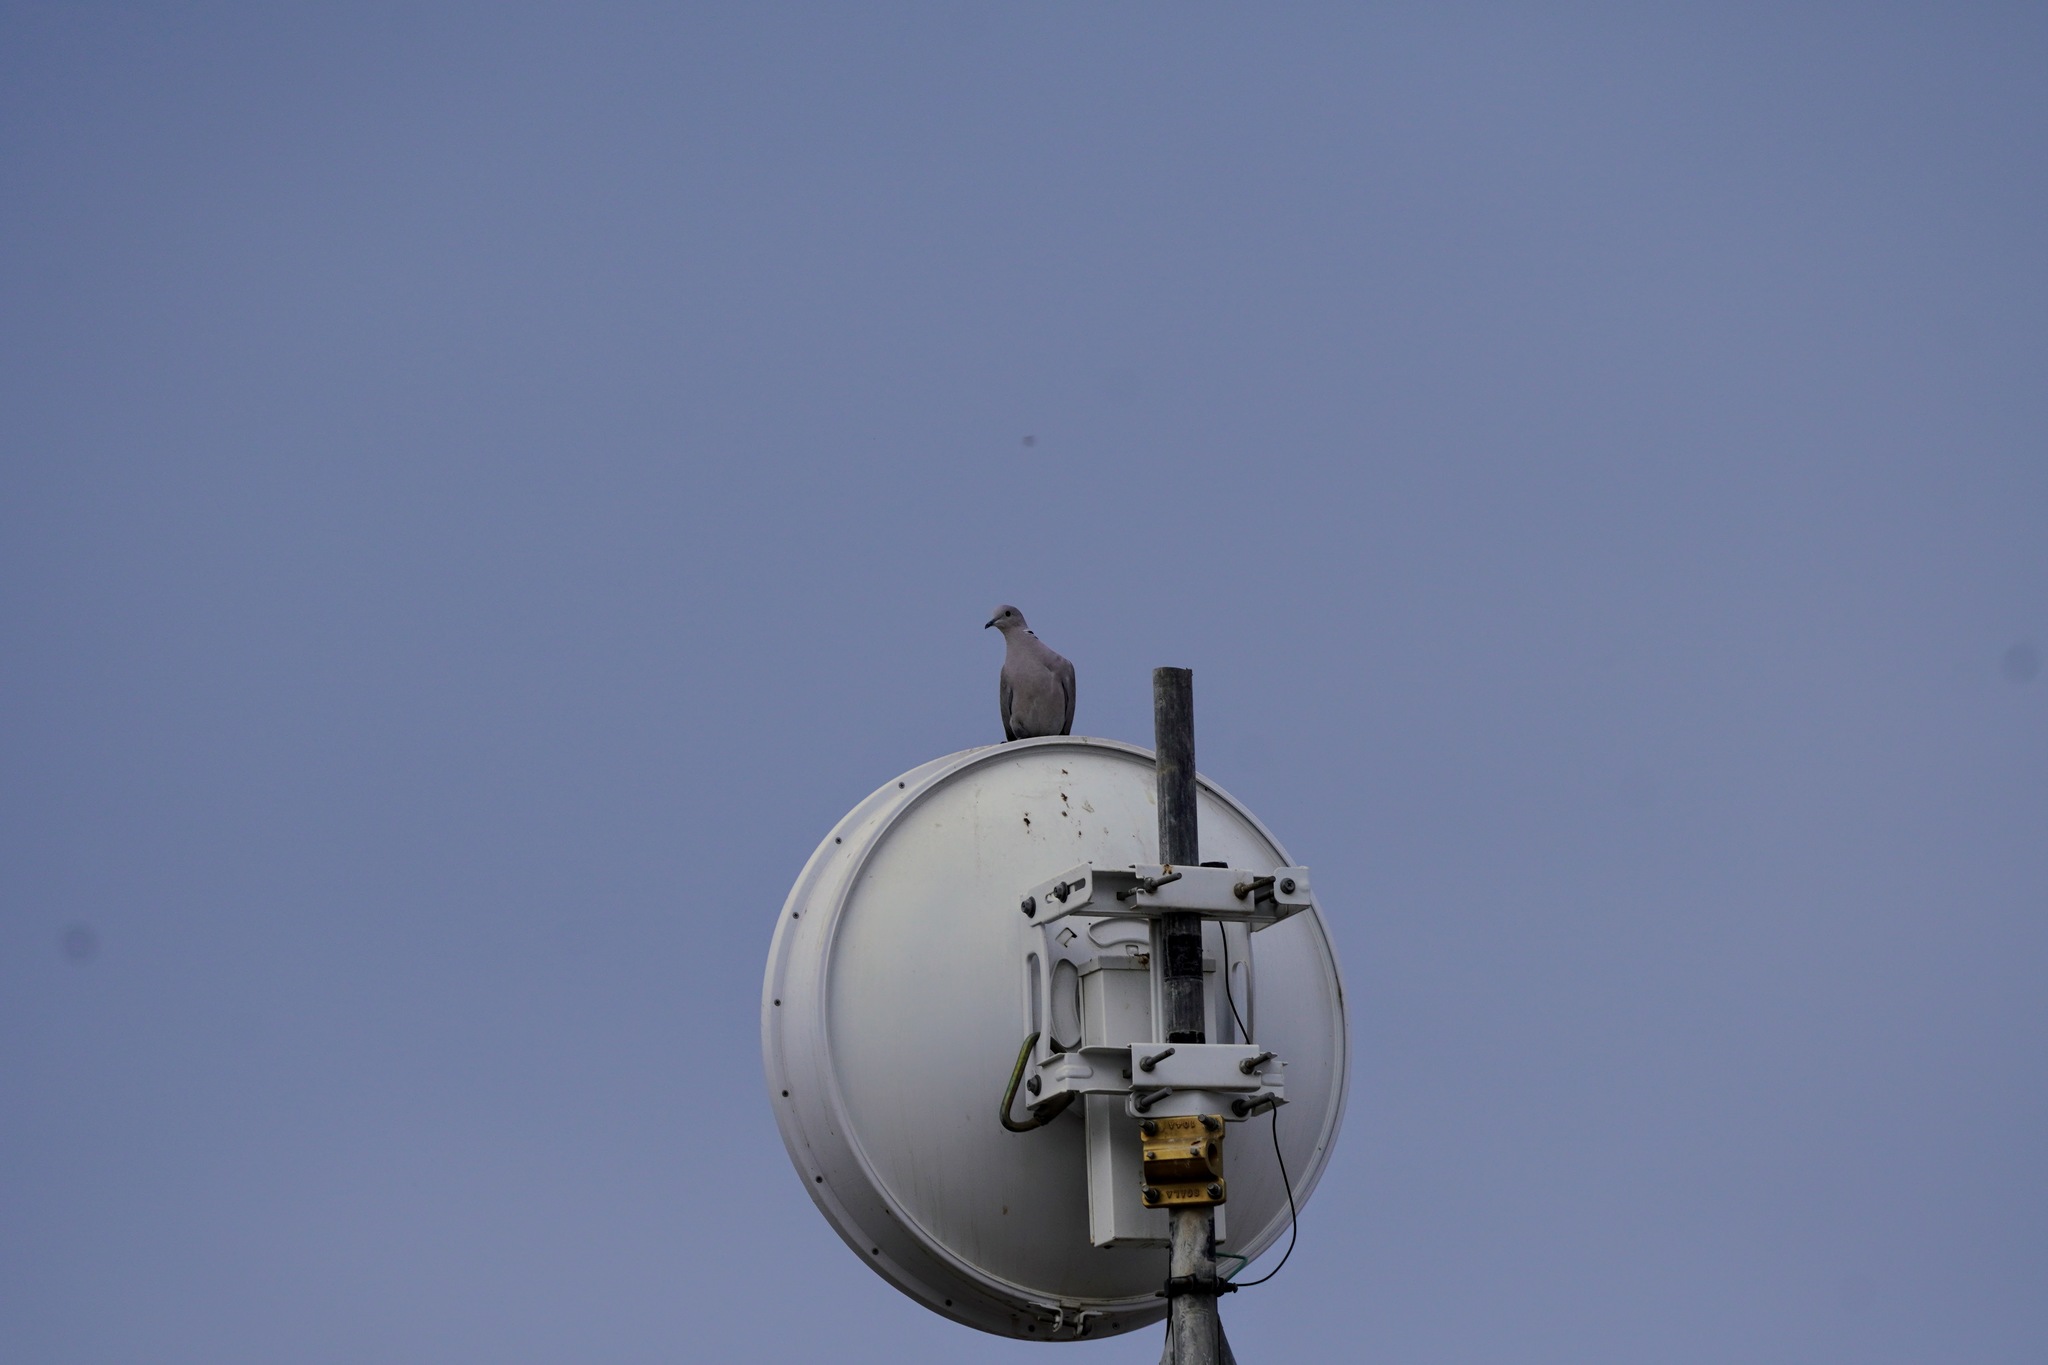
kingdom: Animalia
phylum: Chordata
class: Aves
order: Columbiformes
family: Columbidae
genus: Zenaida
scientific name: Zenaida macroura
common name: Mourning dove
